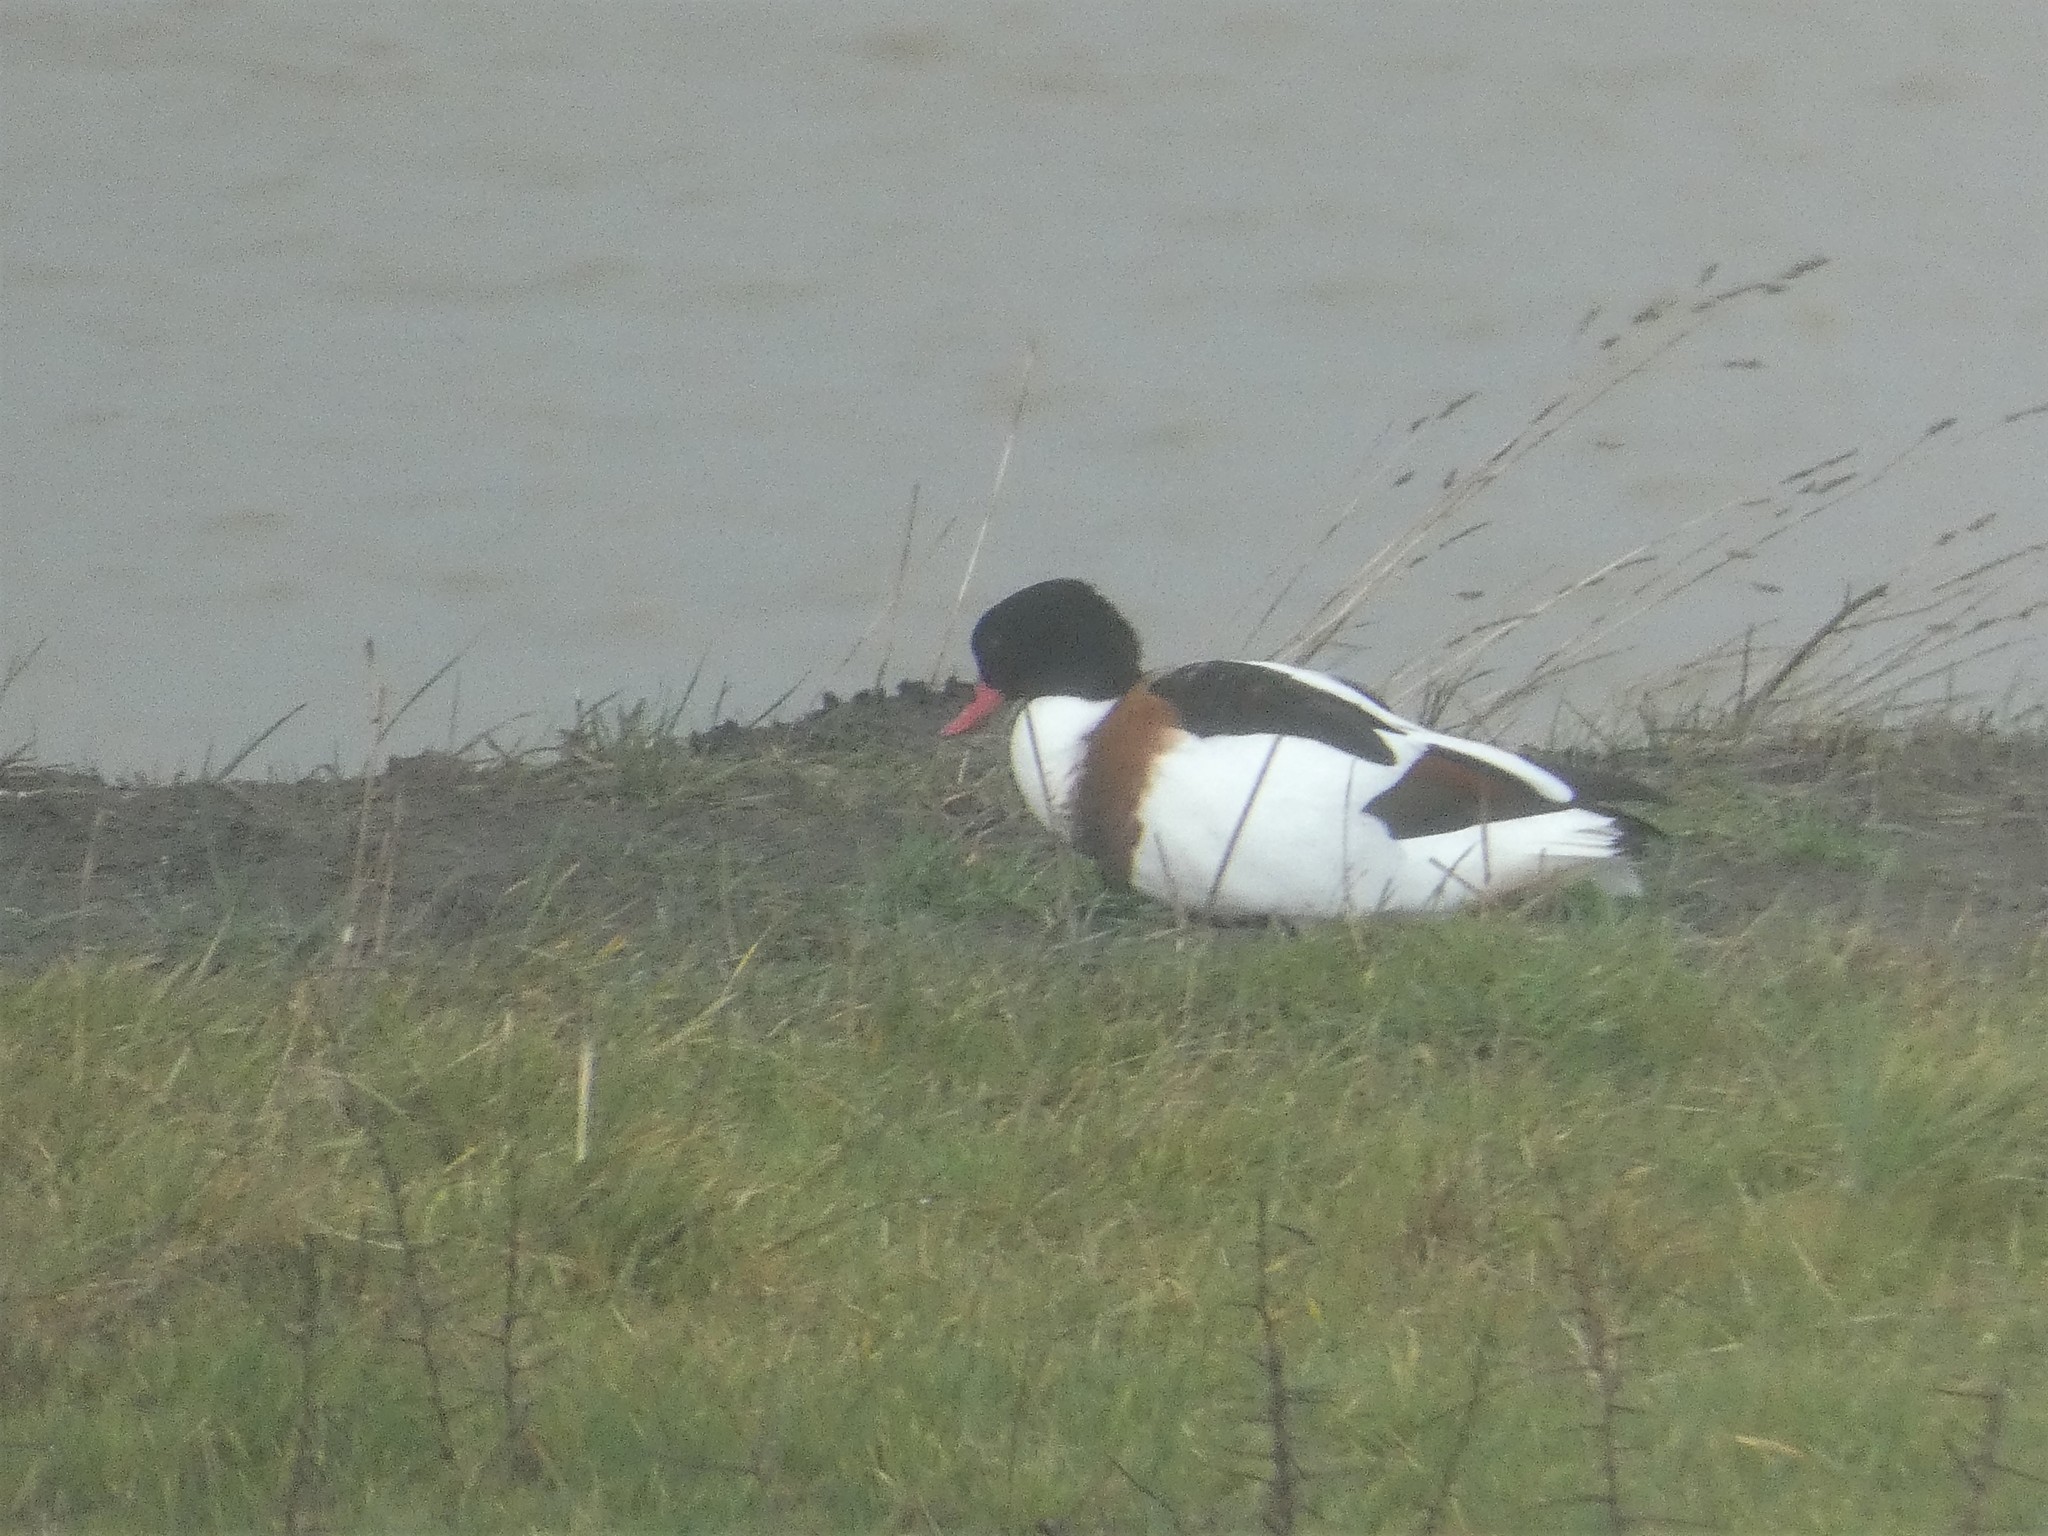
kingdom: Animalia
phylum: Chordata
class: Aves
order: Anseriformes
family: Anatidae
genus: Tadorna
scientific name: Tadorna tadorna
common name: Common shelduck
